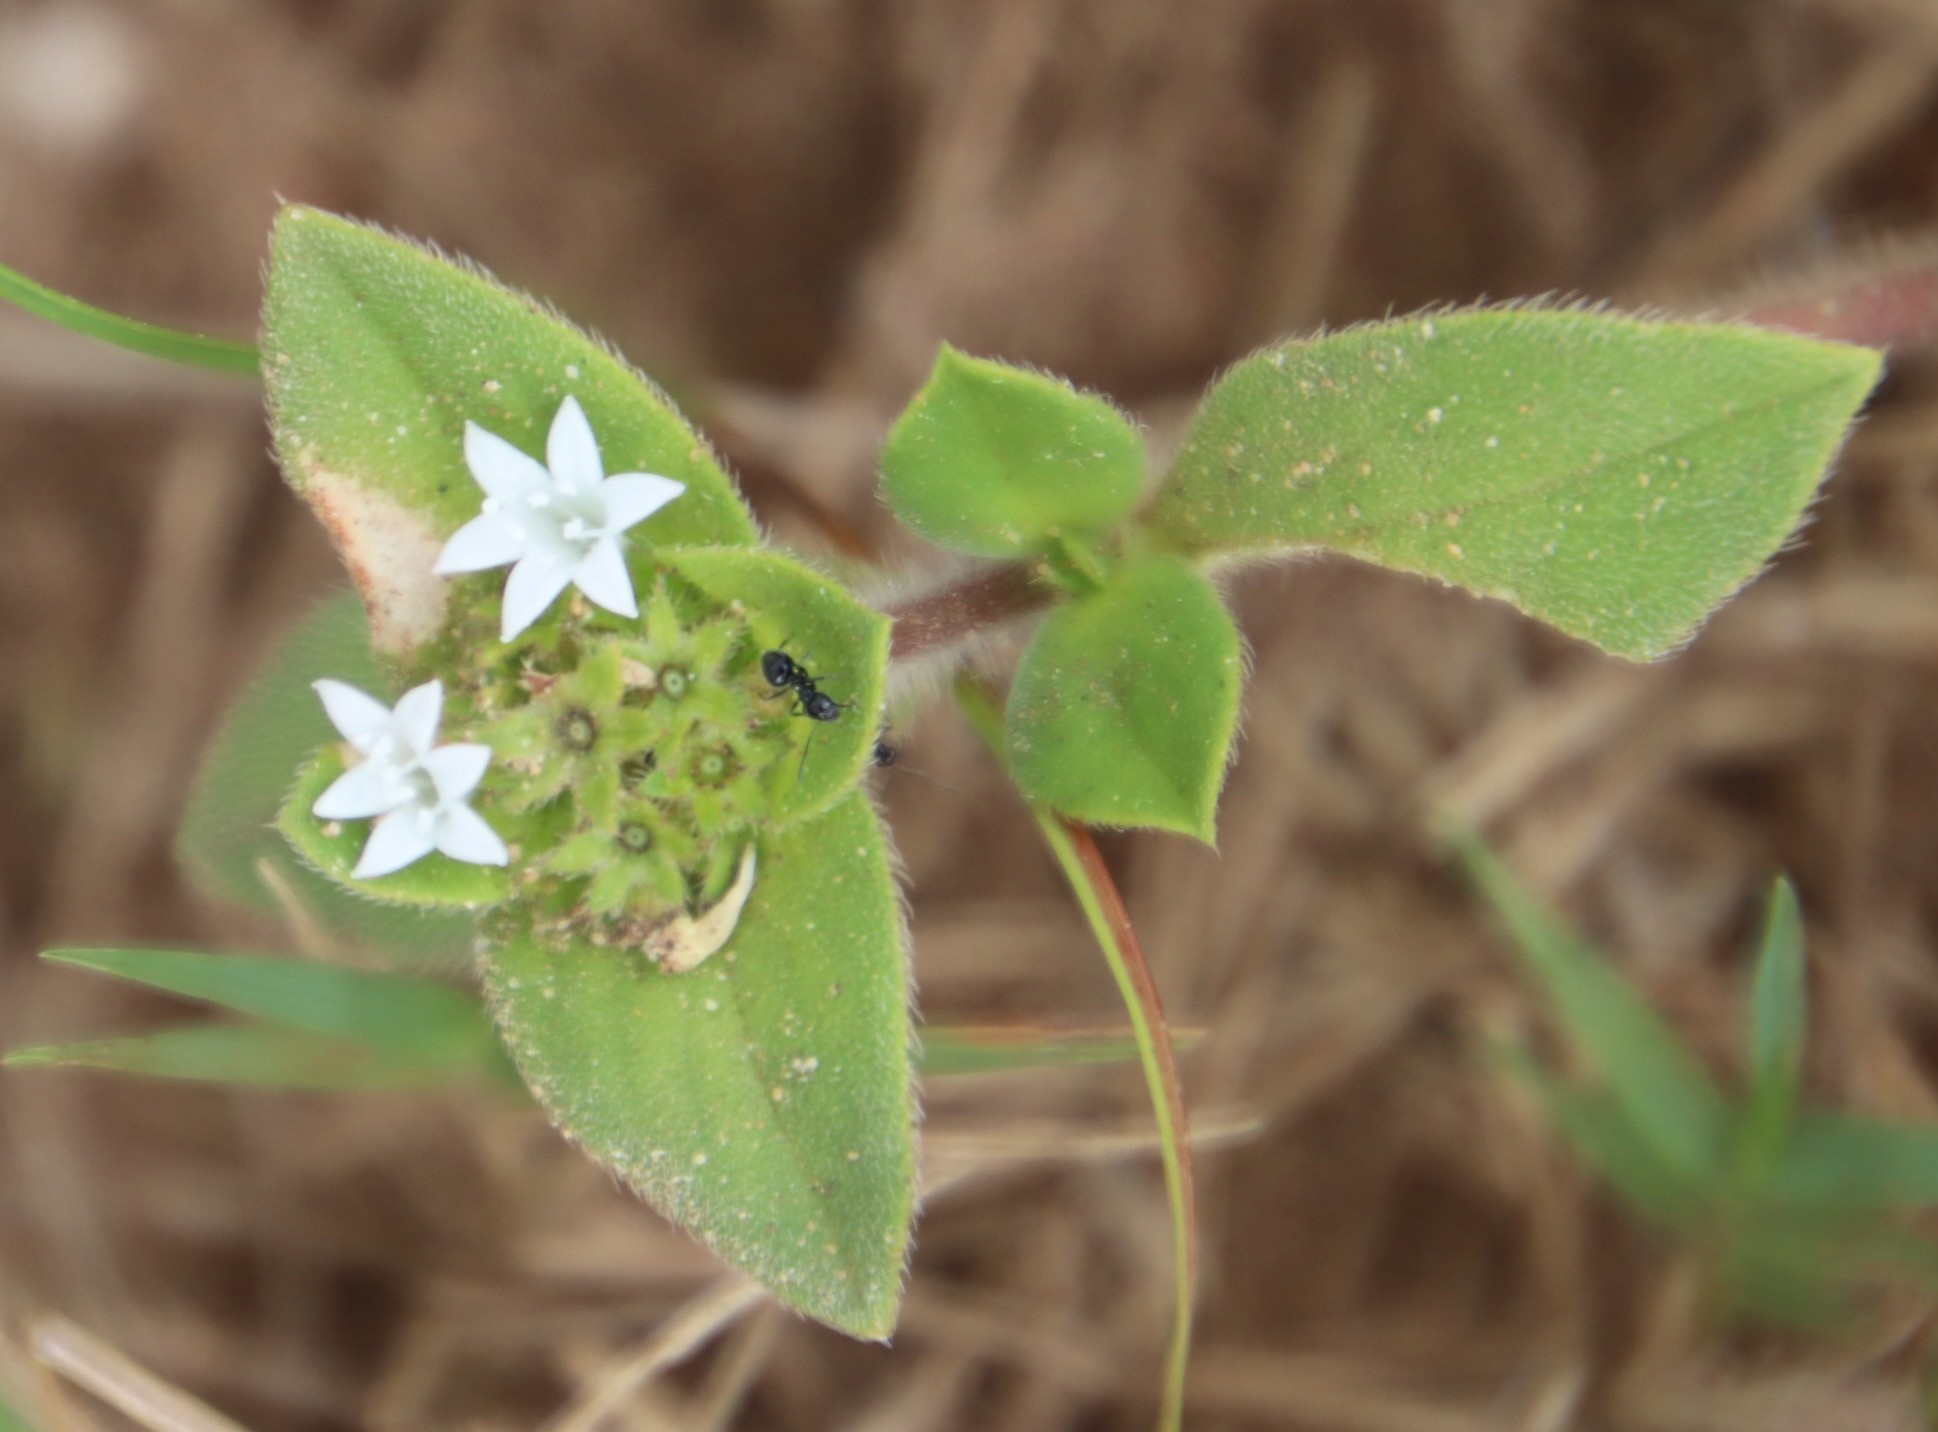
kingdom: Plantae
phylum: Tracheophyta
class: Magnoliopsida
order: Gentianales
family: Rubiaceae
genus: Richardia
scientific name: Richardia brasiliensis
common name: Tropical mexican clover
